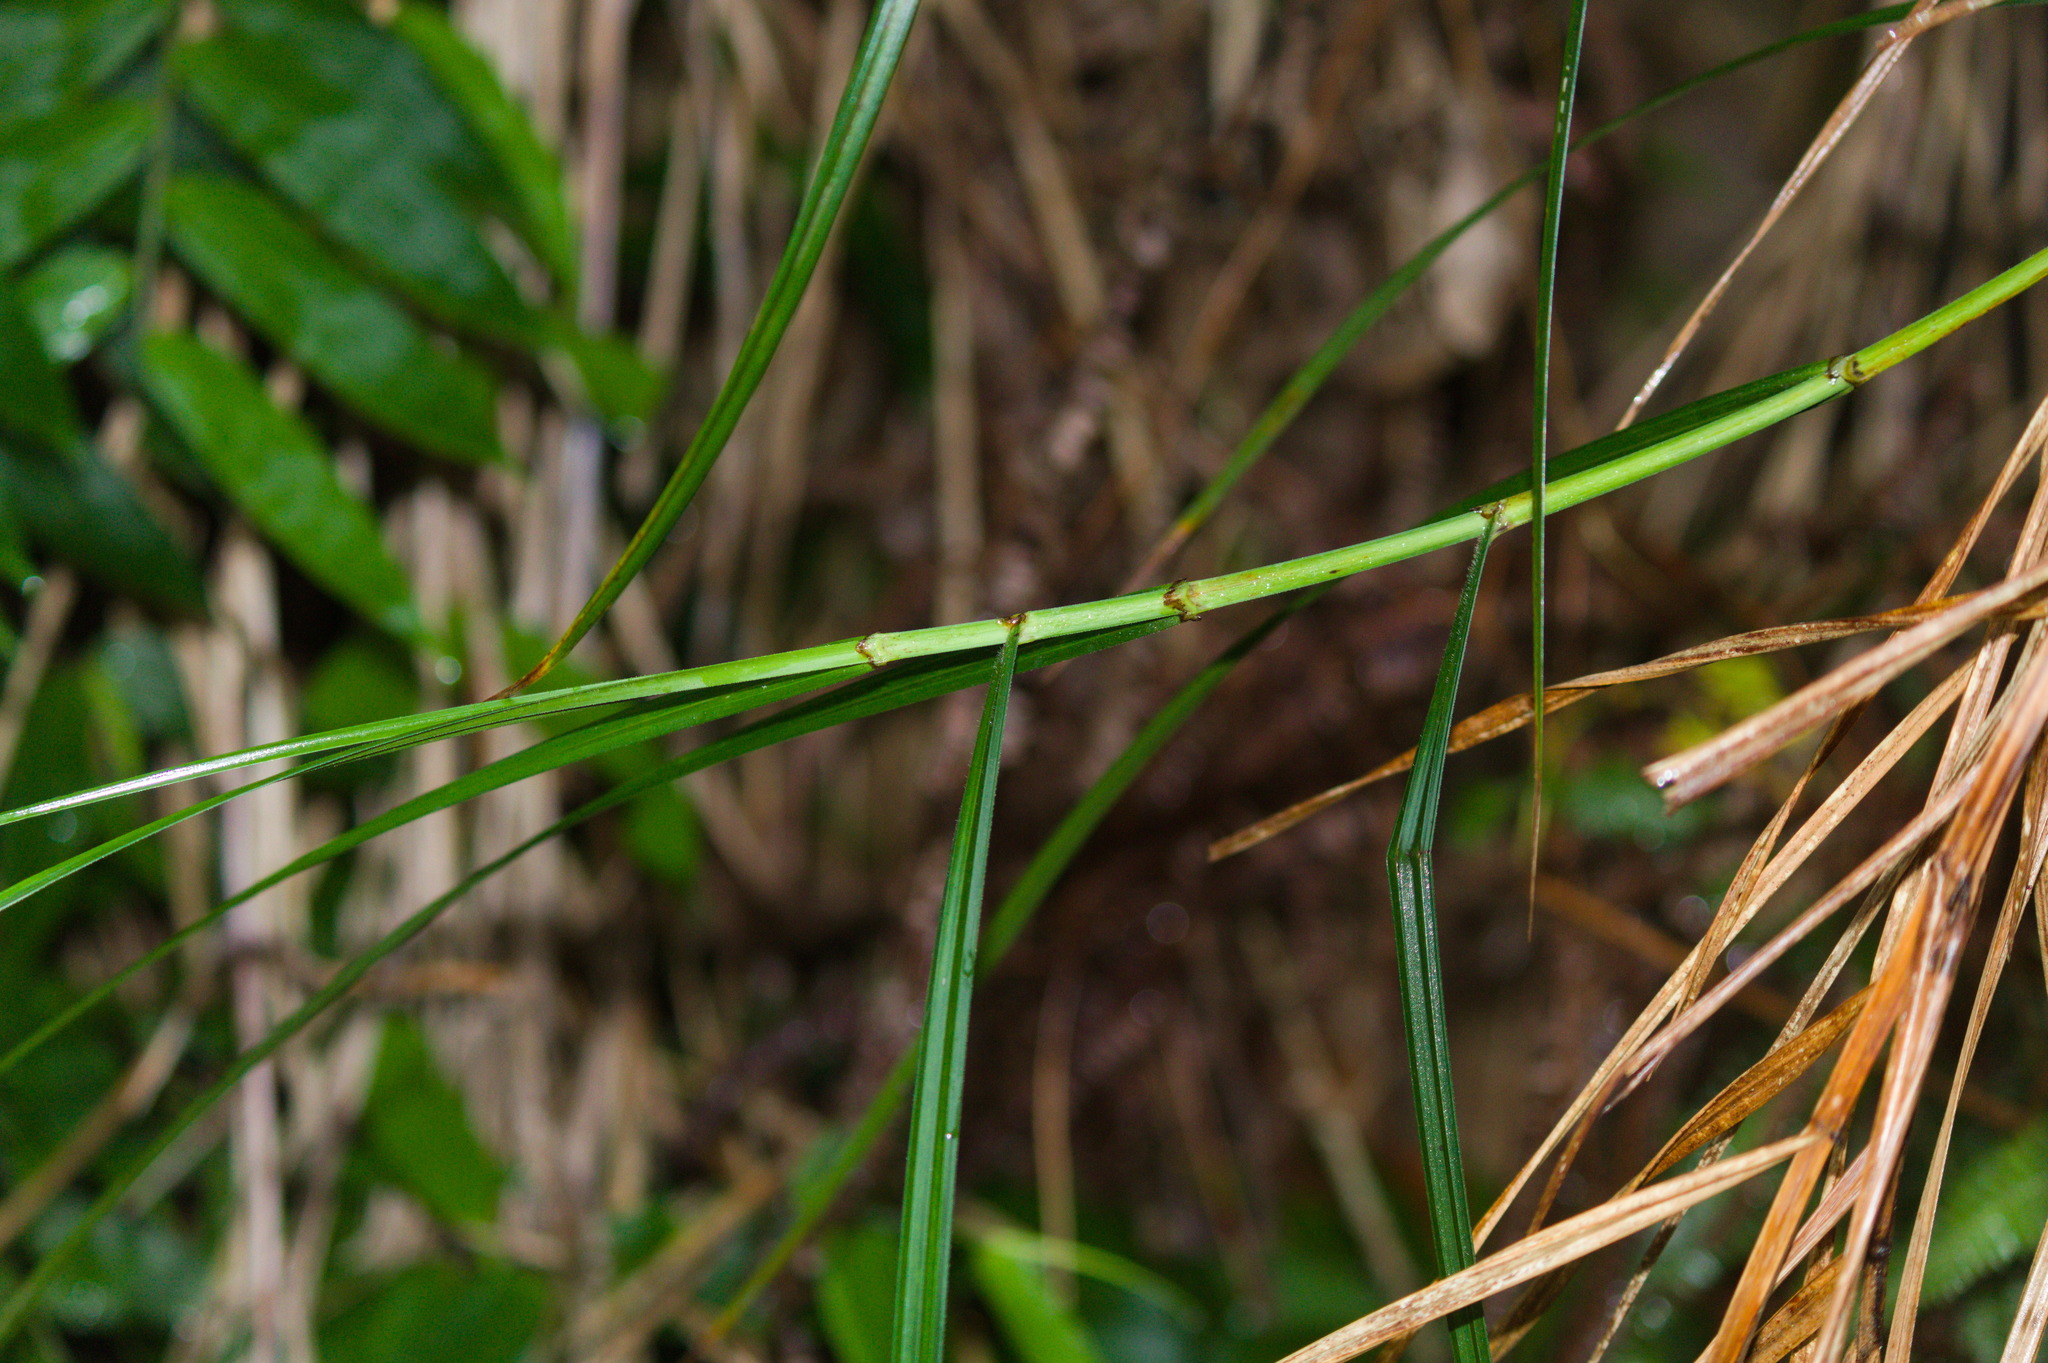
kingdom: Plantae
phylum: Tracheophyta
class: Liliopsida
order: Poales
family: Cyperaceae
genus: Scleria
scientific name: Scleria secans
